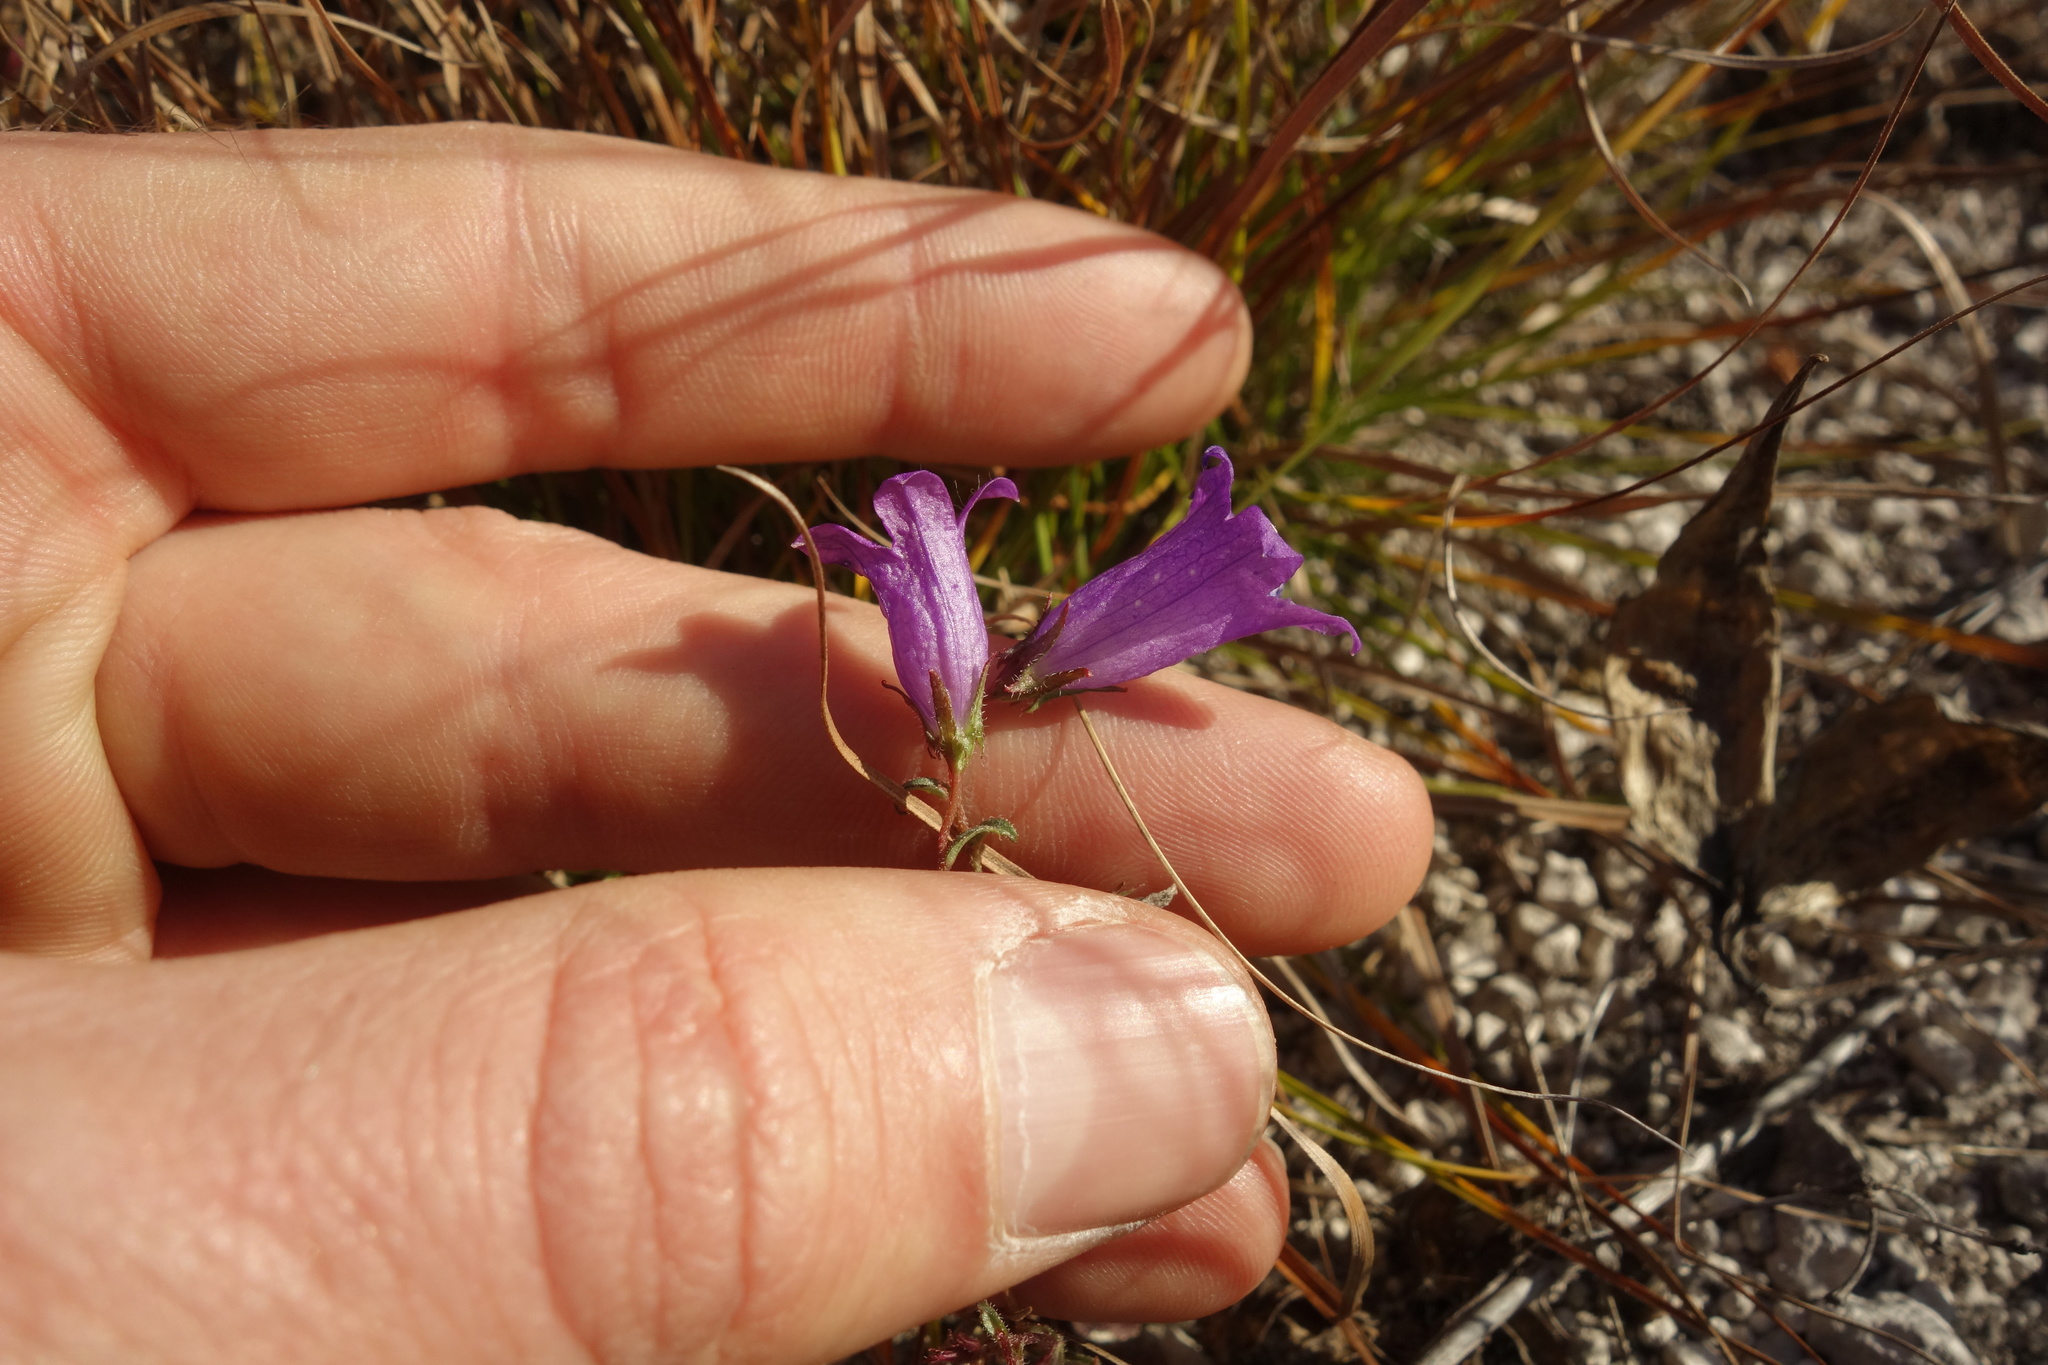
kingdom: Plantae
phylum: Tracheophyta
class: Magnoliopsida
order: Asterales
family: Campanulaceae
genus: Campanula
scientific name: Campanula sibirica
